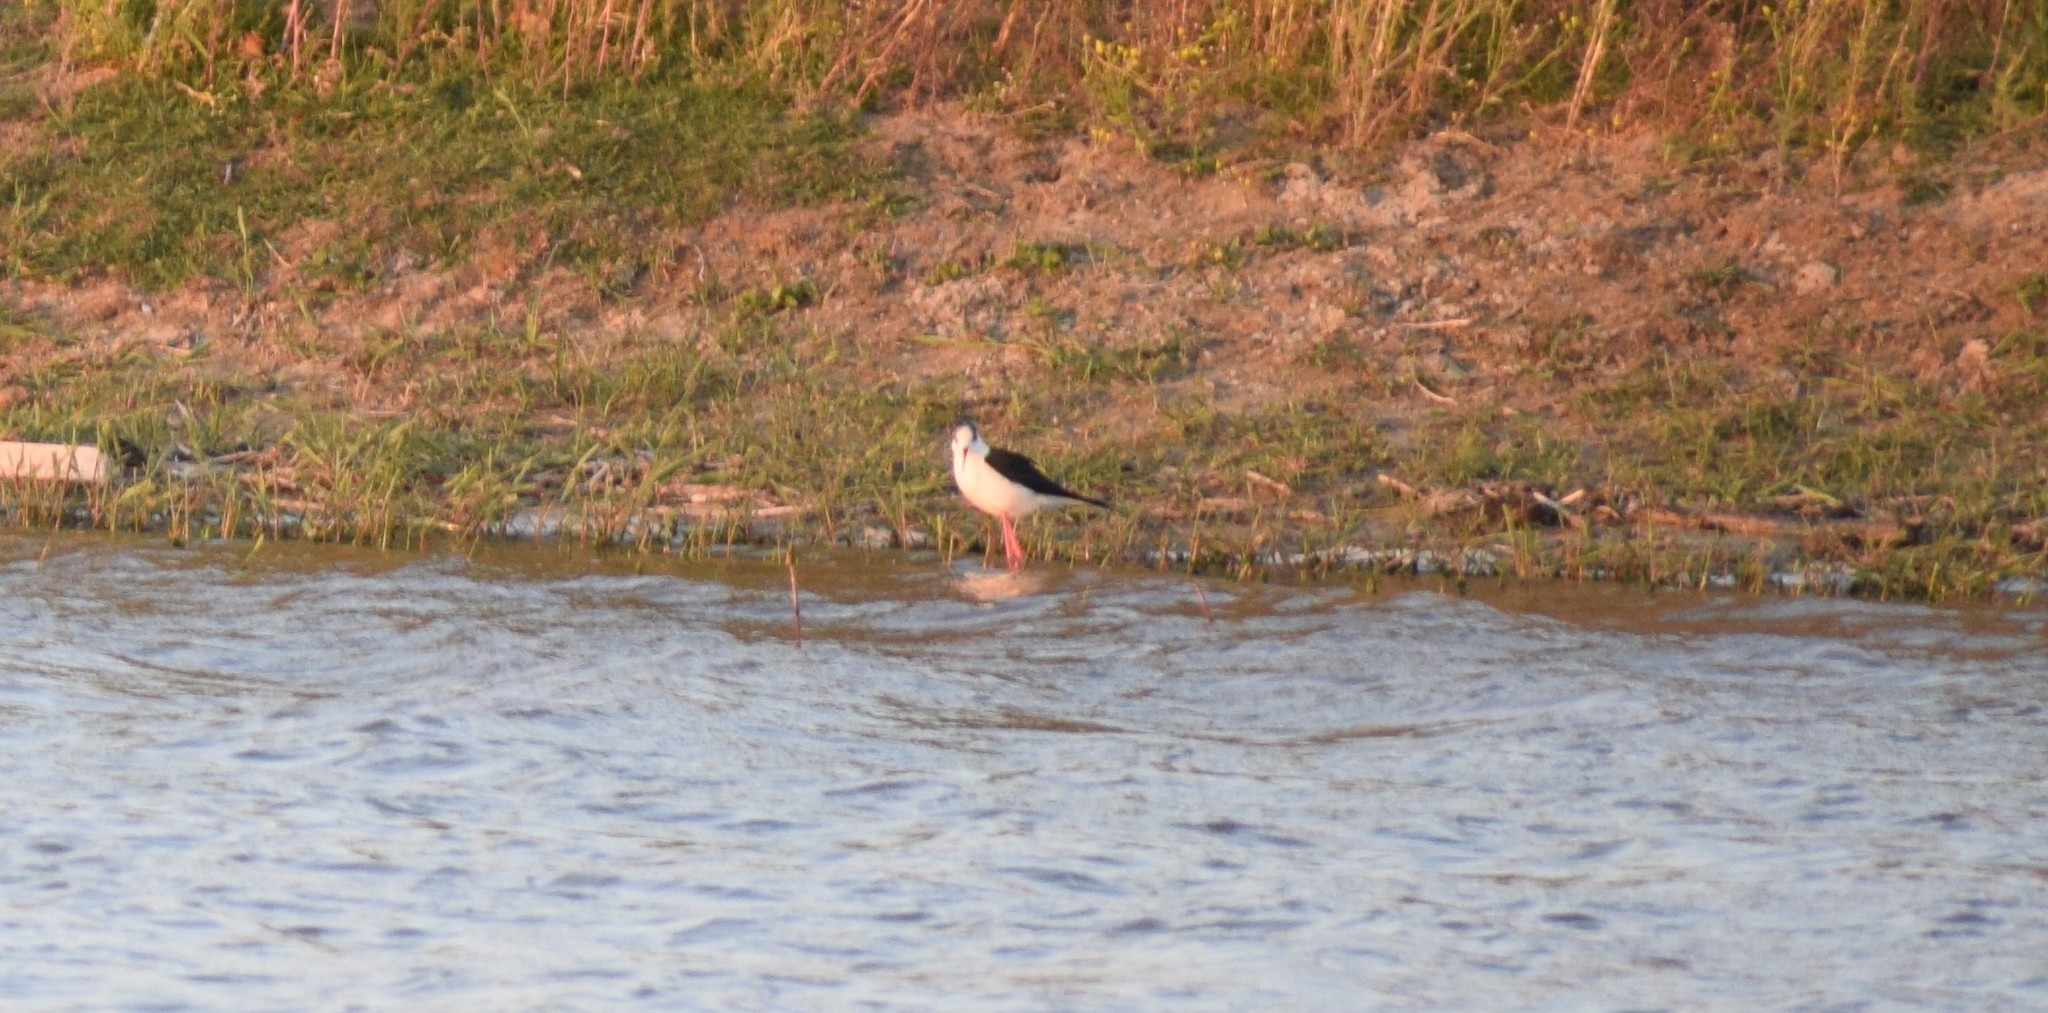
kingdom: Animalia
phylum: Chordata
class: Aves
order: Charadriiformes
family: Recurvirostridae
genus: Himantopus
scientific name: Himantopus himantopus
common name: Black-winged stilt
